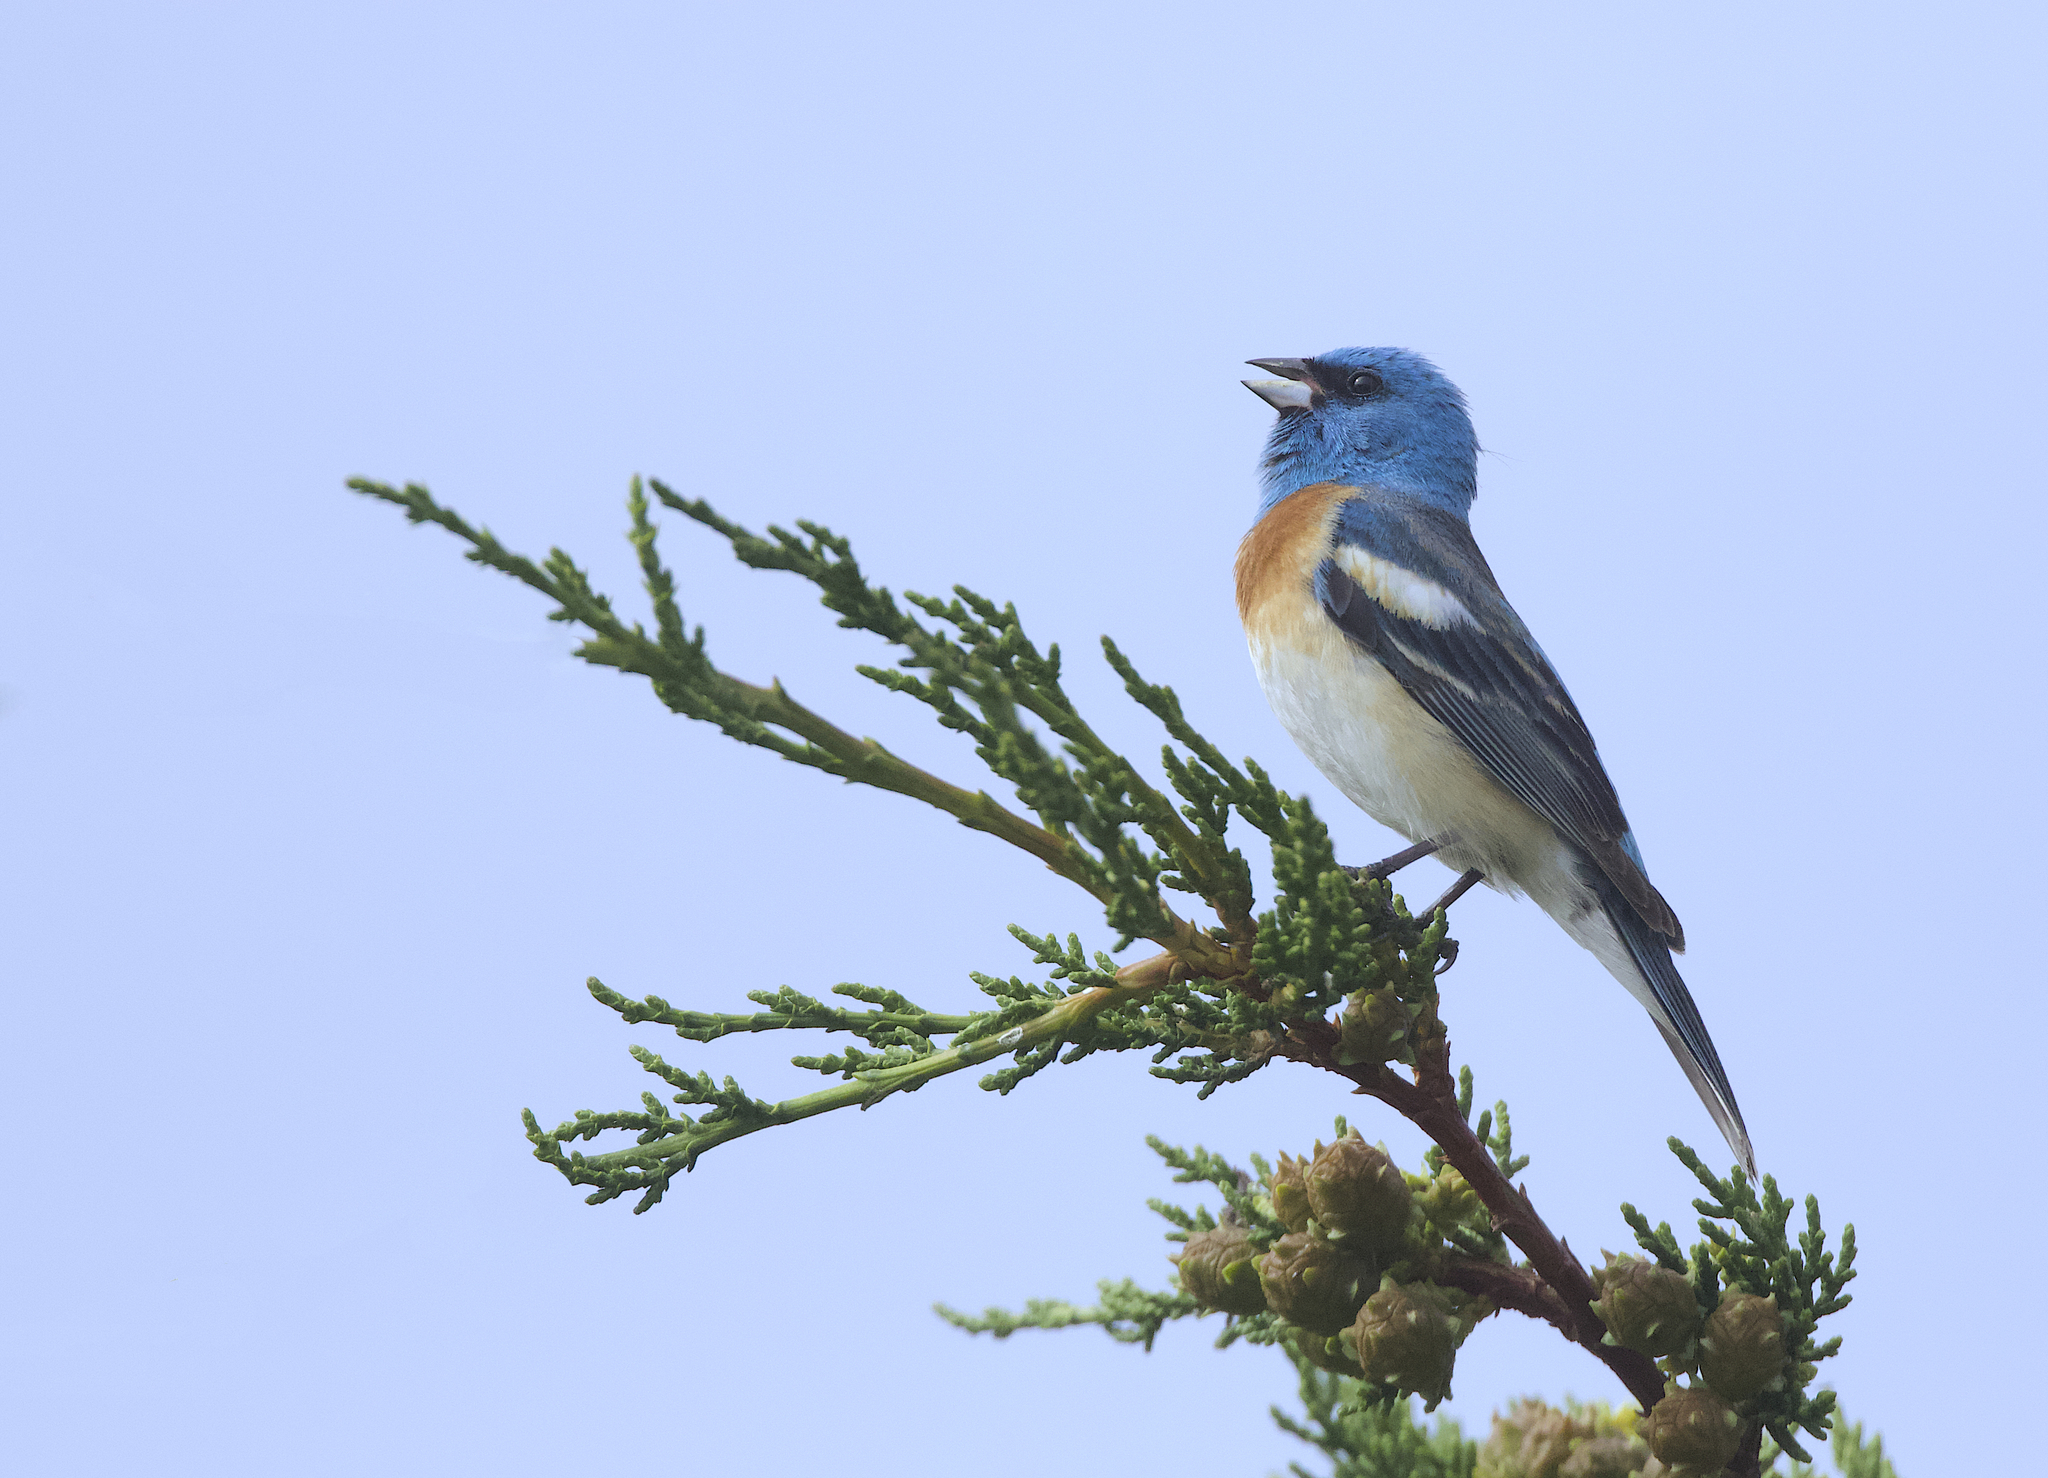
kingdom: Animalia
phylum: Chordata
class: Aves
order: Passeriformes
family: Cardinalidae
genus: Passerina
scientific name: Passerina amoena
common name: Lazuli bunting
